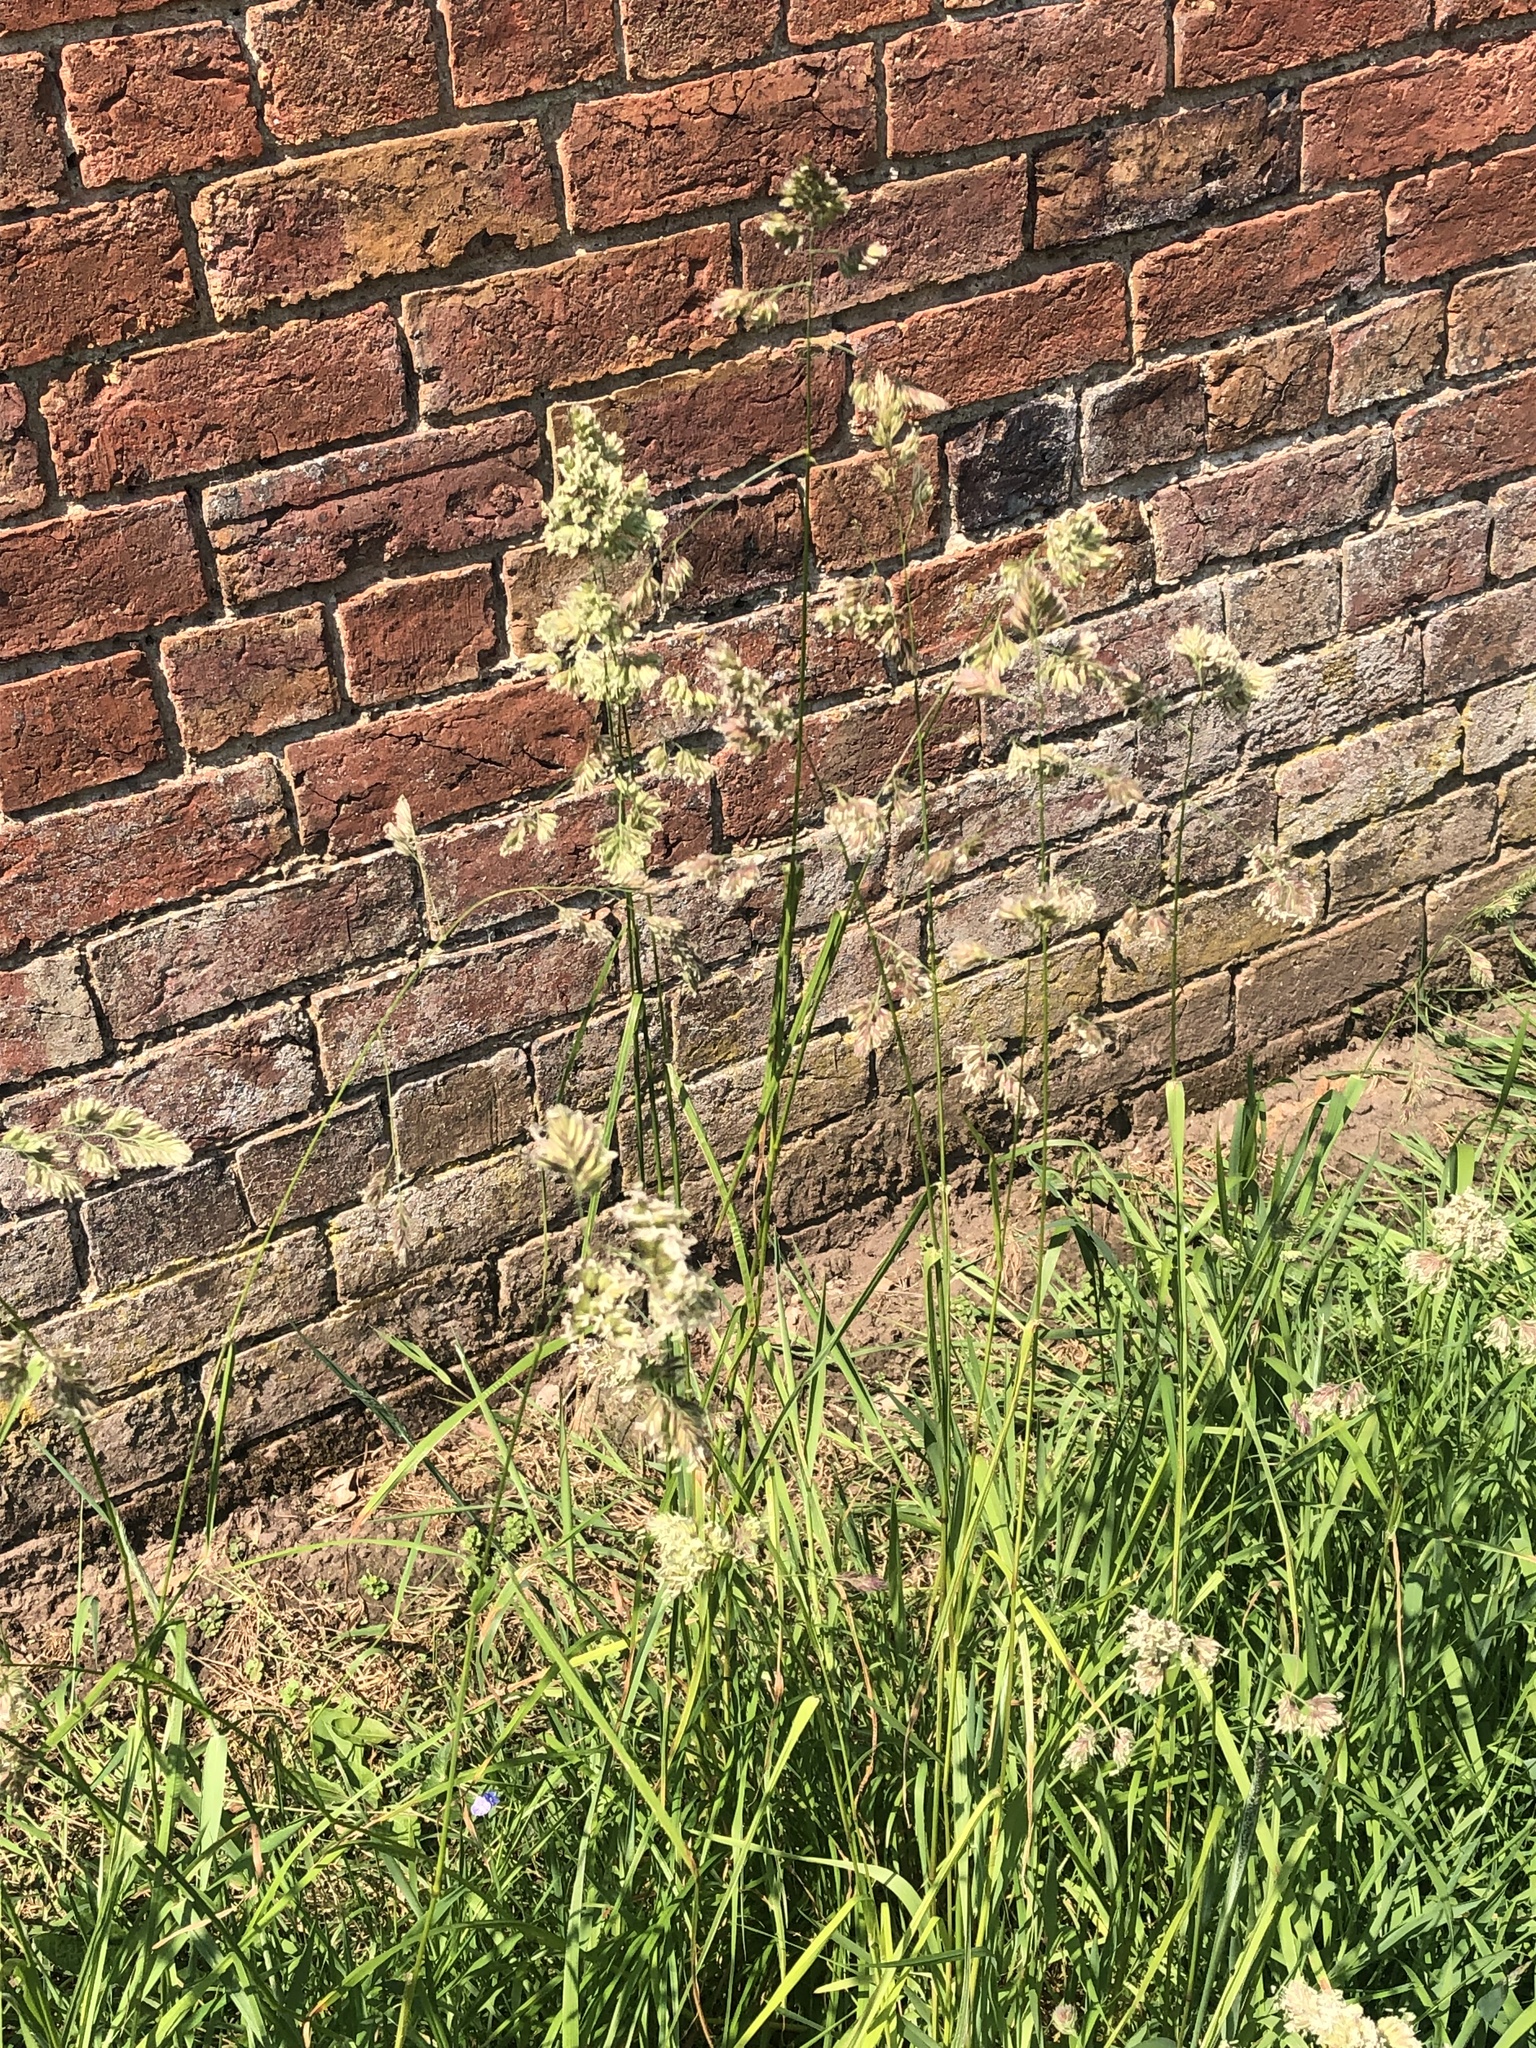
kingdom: Plantae
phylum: Tracheophyta
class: Liliopsida
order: Poales
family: Poaceae
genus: Dactylis
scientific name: Dactylis glomerata
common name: Orchardgrass
